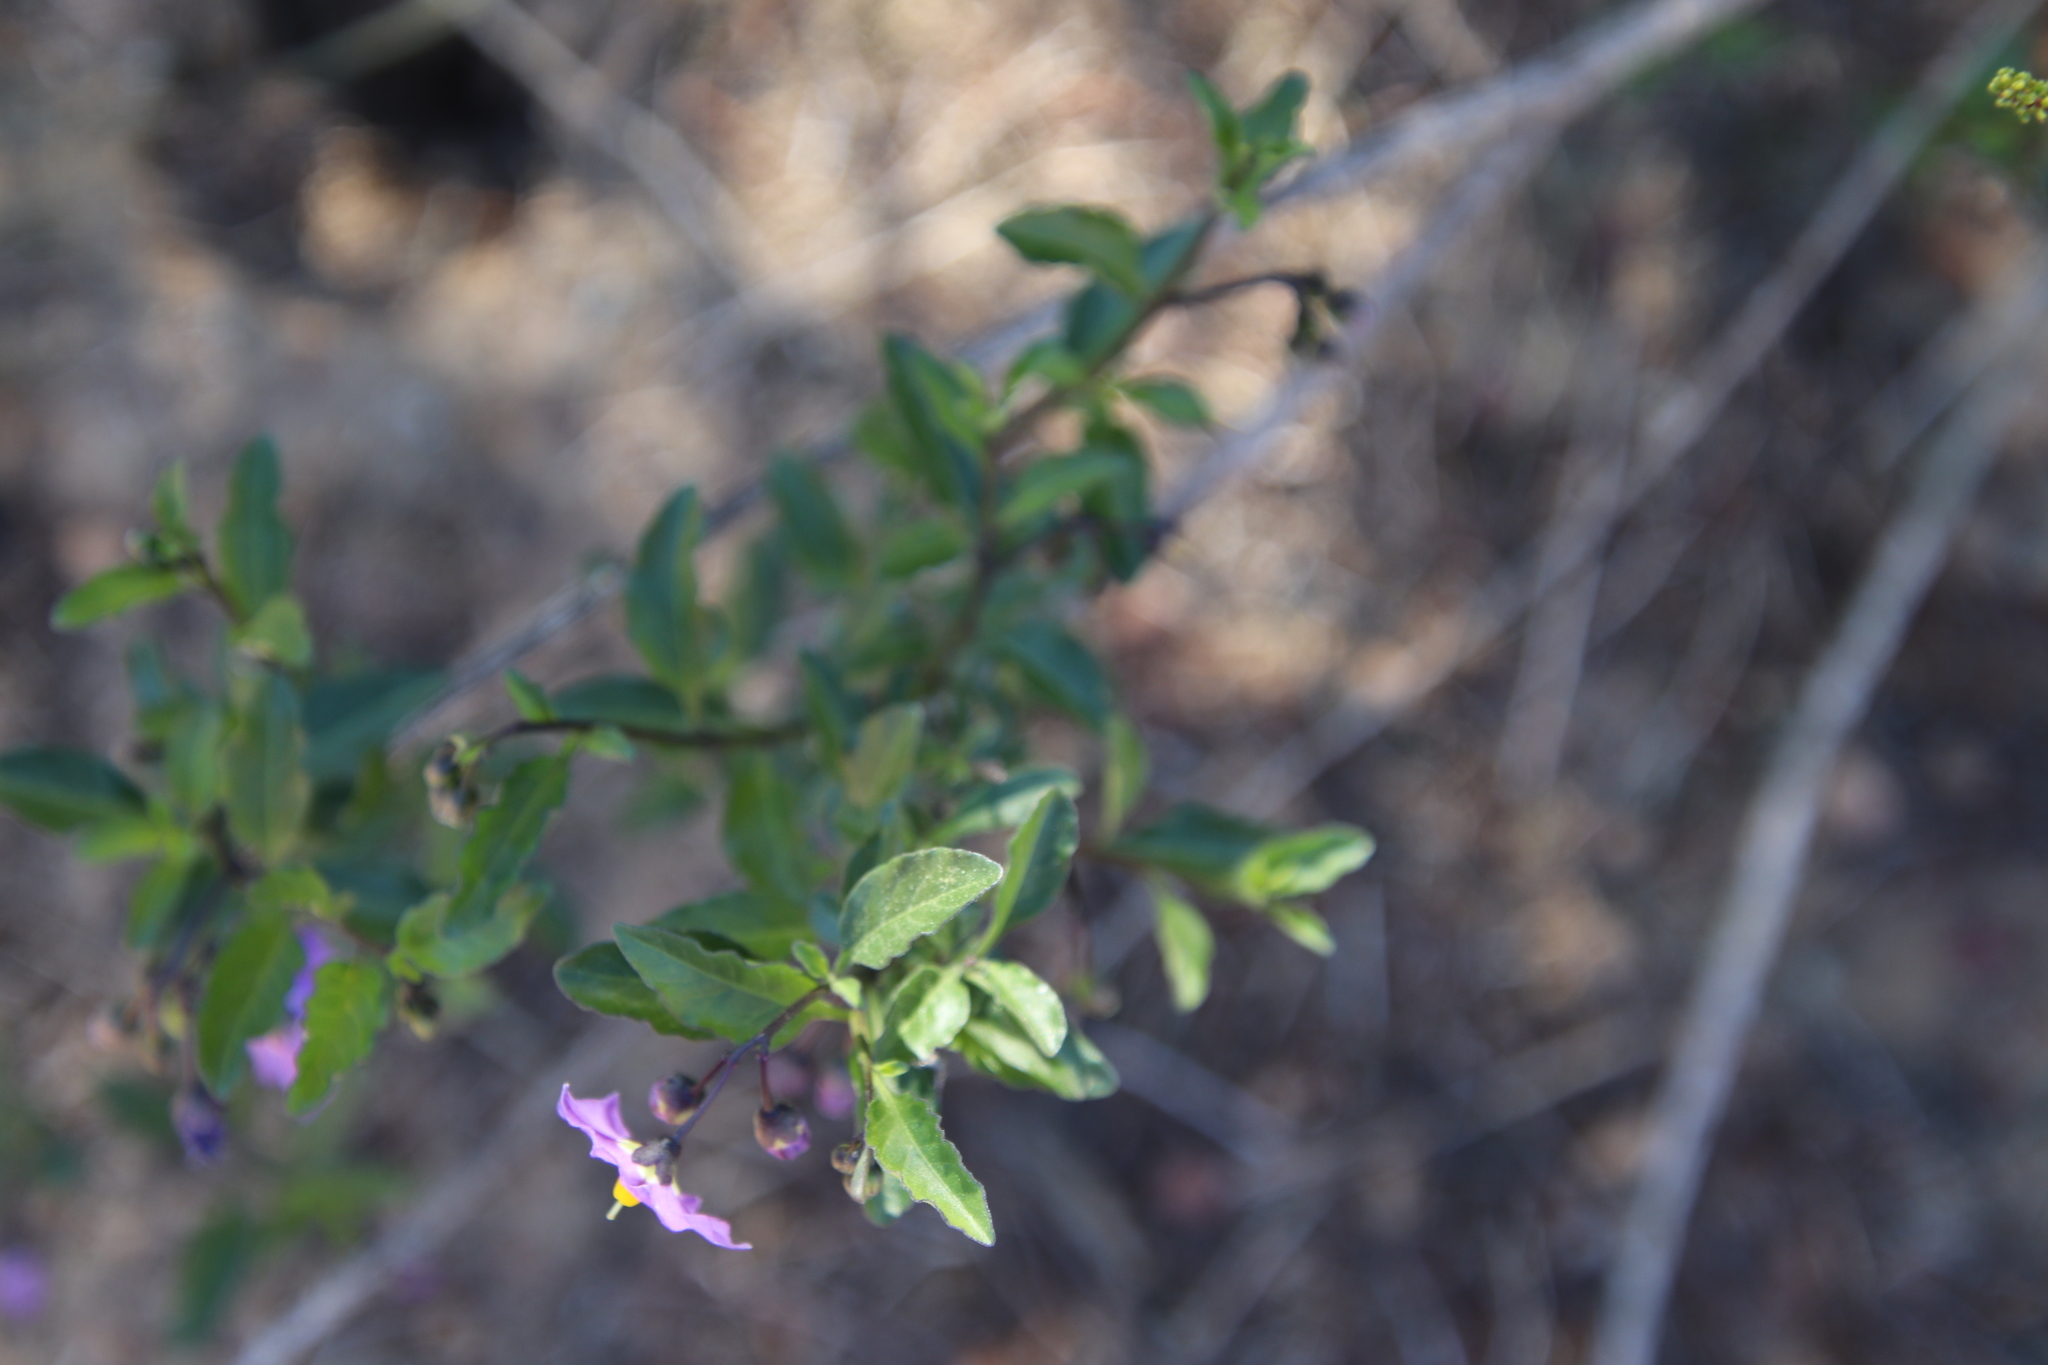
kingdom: Plantae
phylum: Tracheophyta
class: Magnoliopsida
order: Solanales
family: Solanaceae
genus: Solanum
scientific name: Solanum umbelliferum
